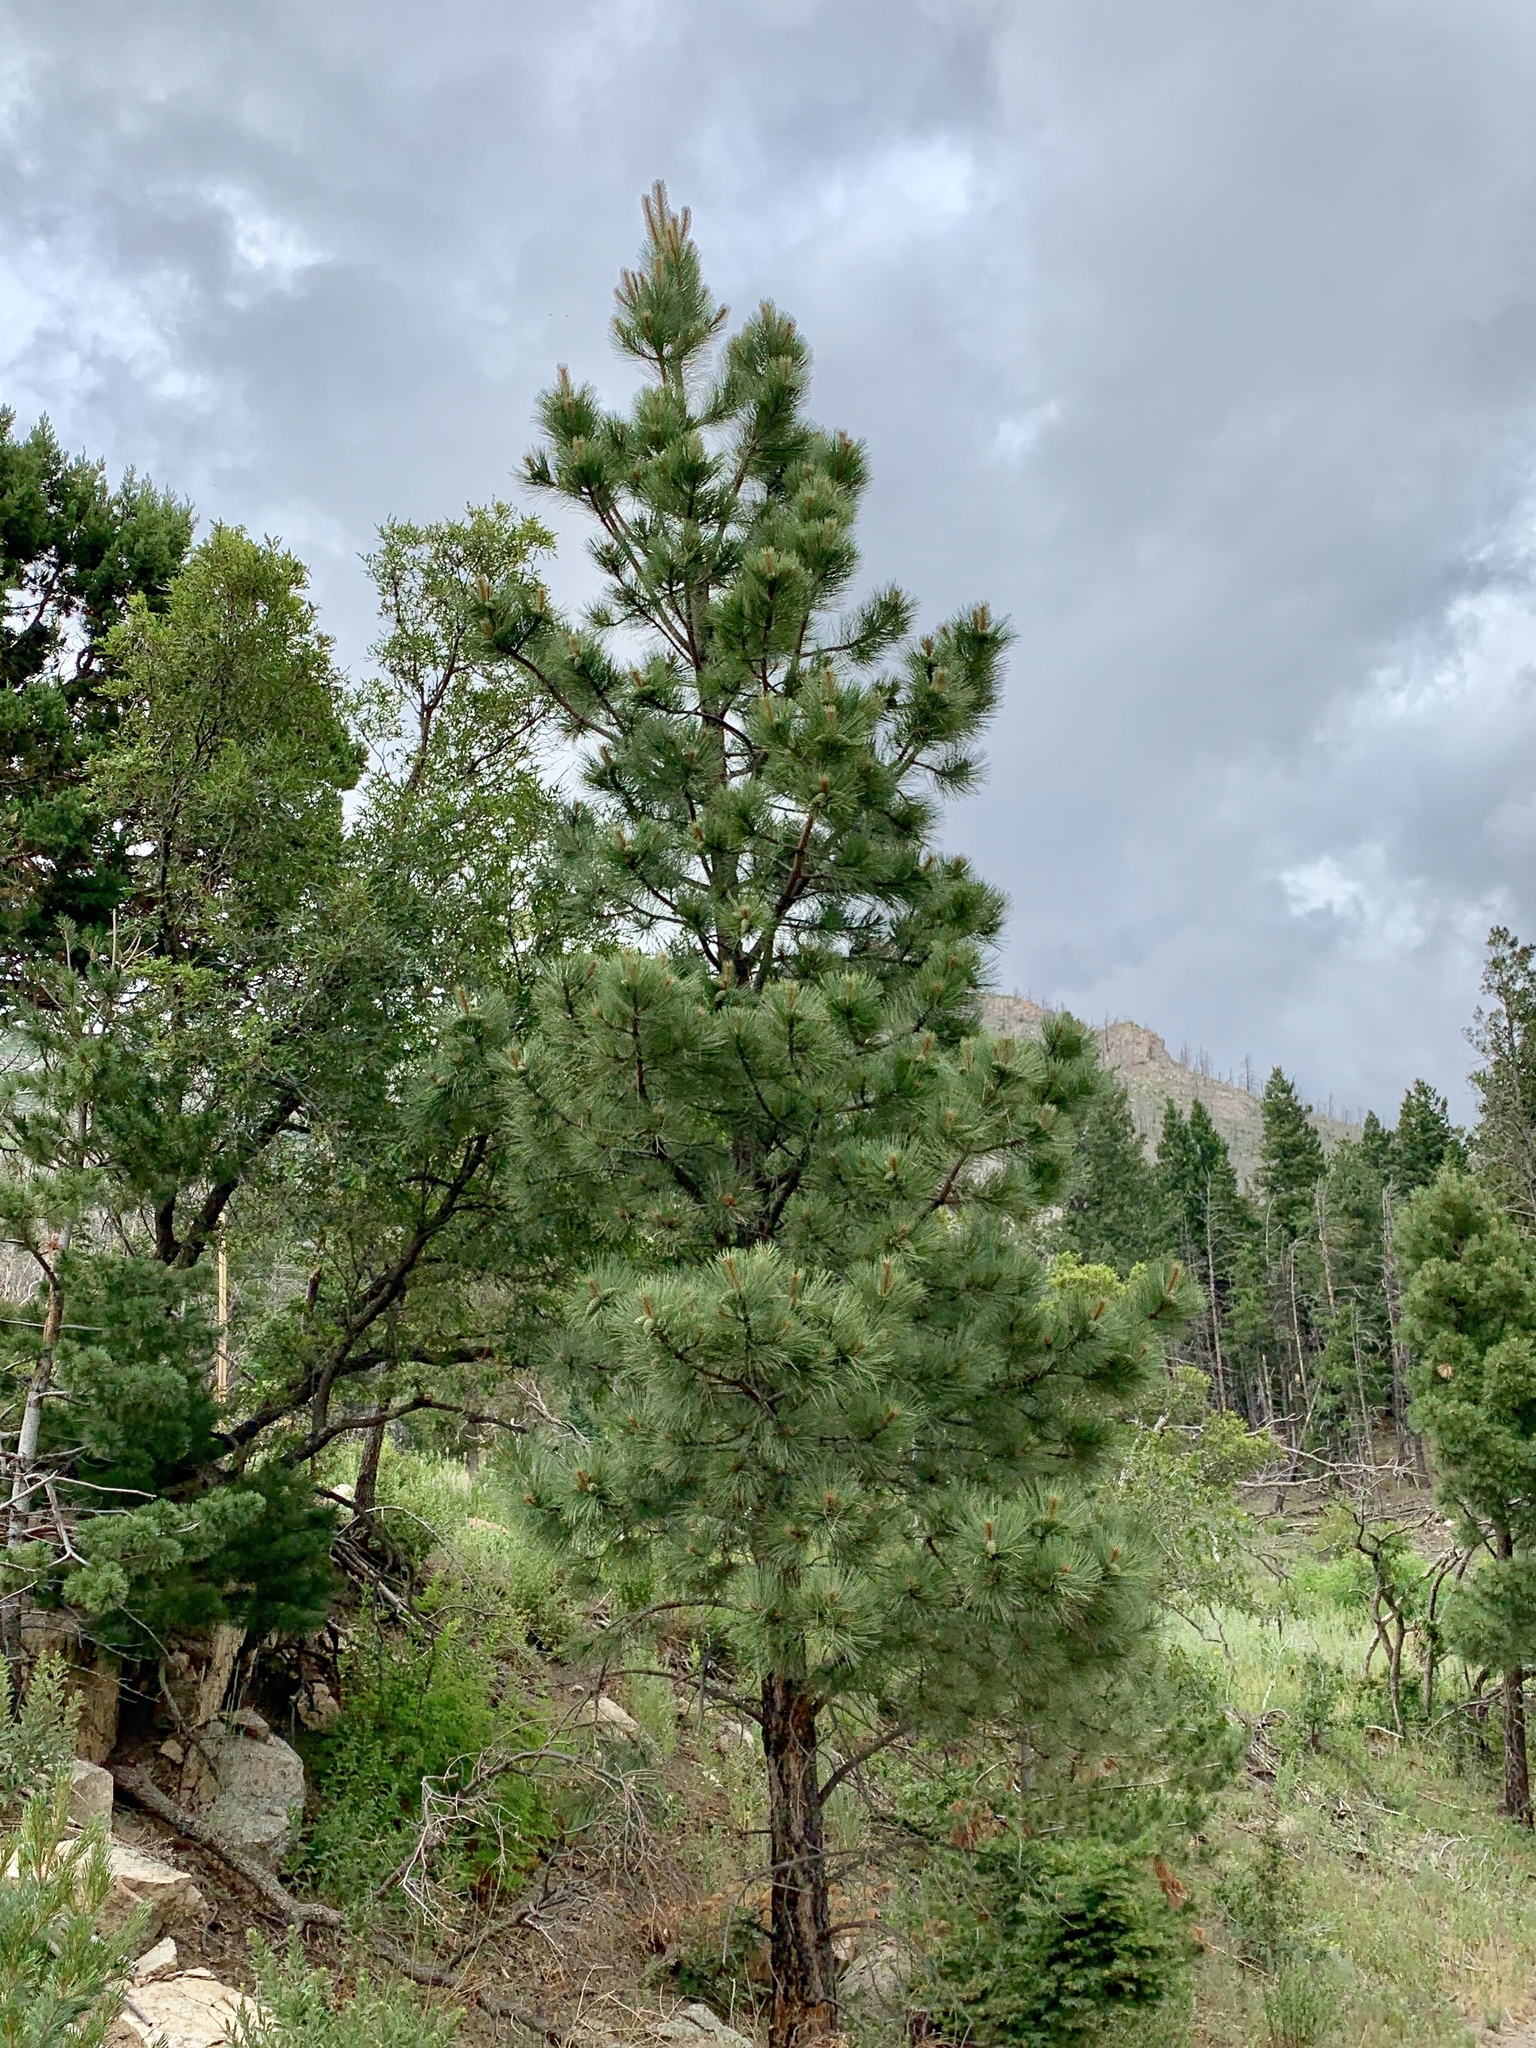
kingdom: Plantae
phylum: Tracheophyta
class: Pinopsida
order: Pinales
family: Pinaceae
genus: Pinus
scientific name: Pinus ponderosa
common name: Western yellow-pine
